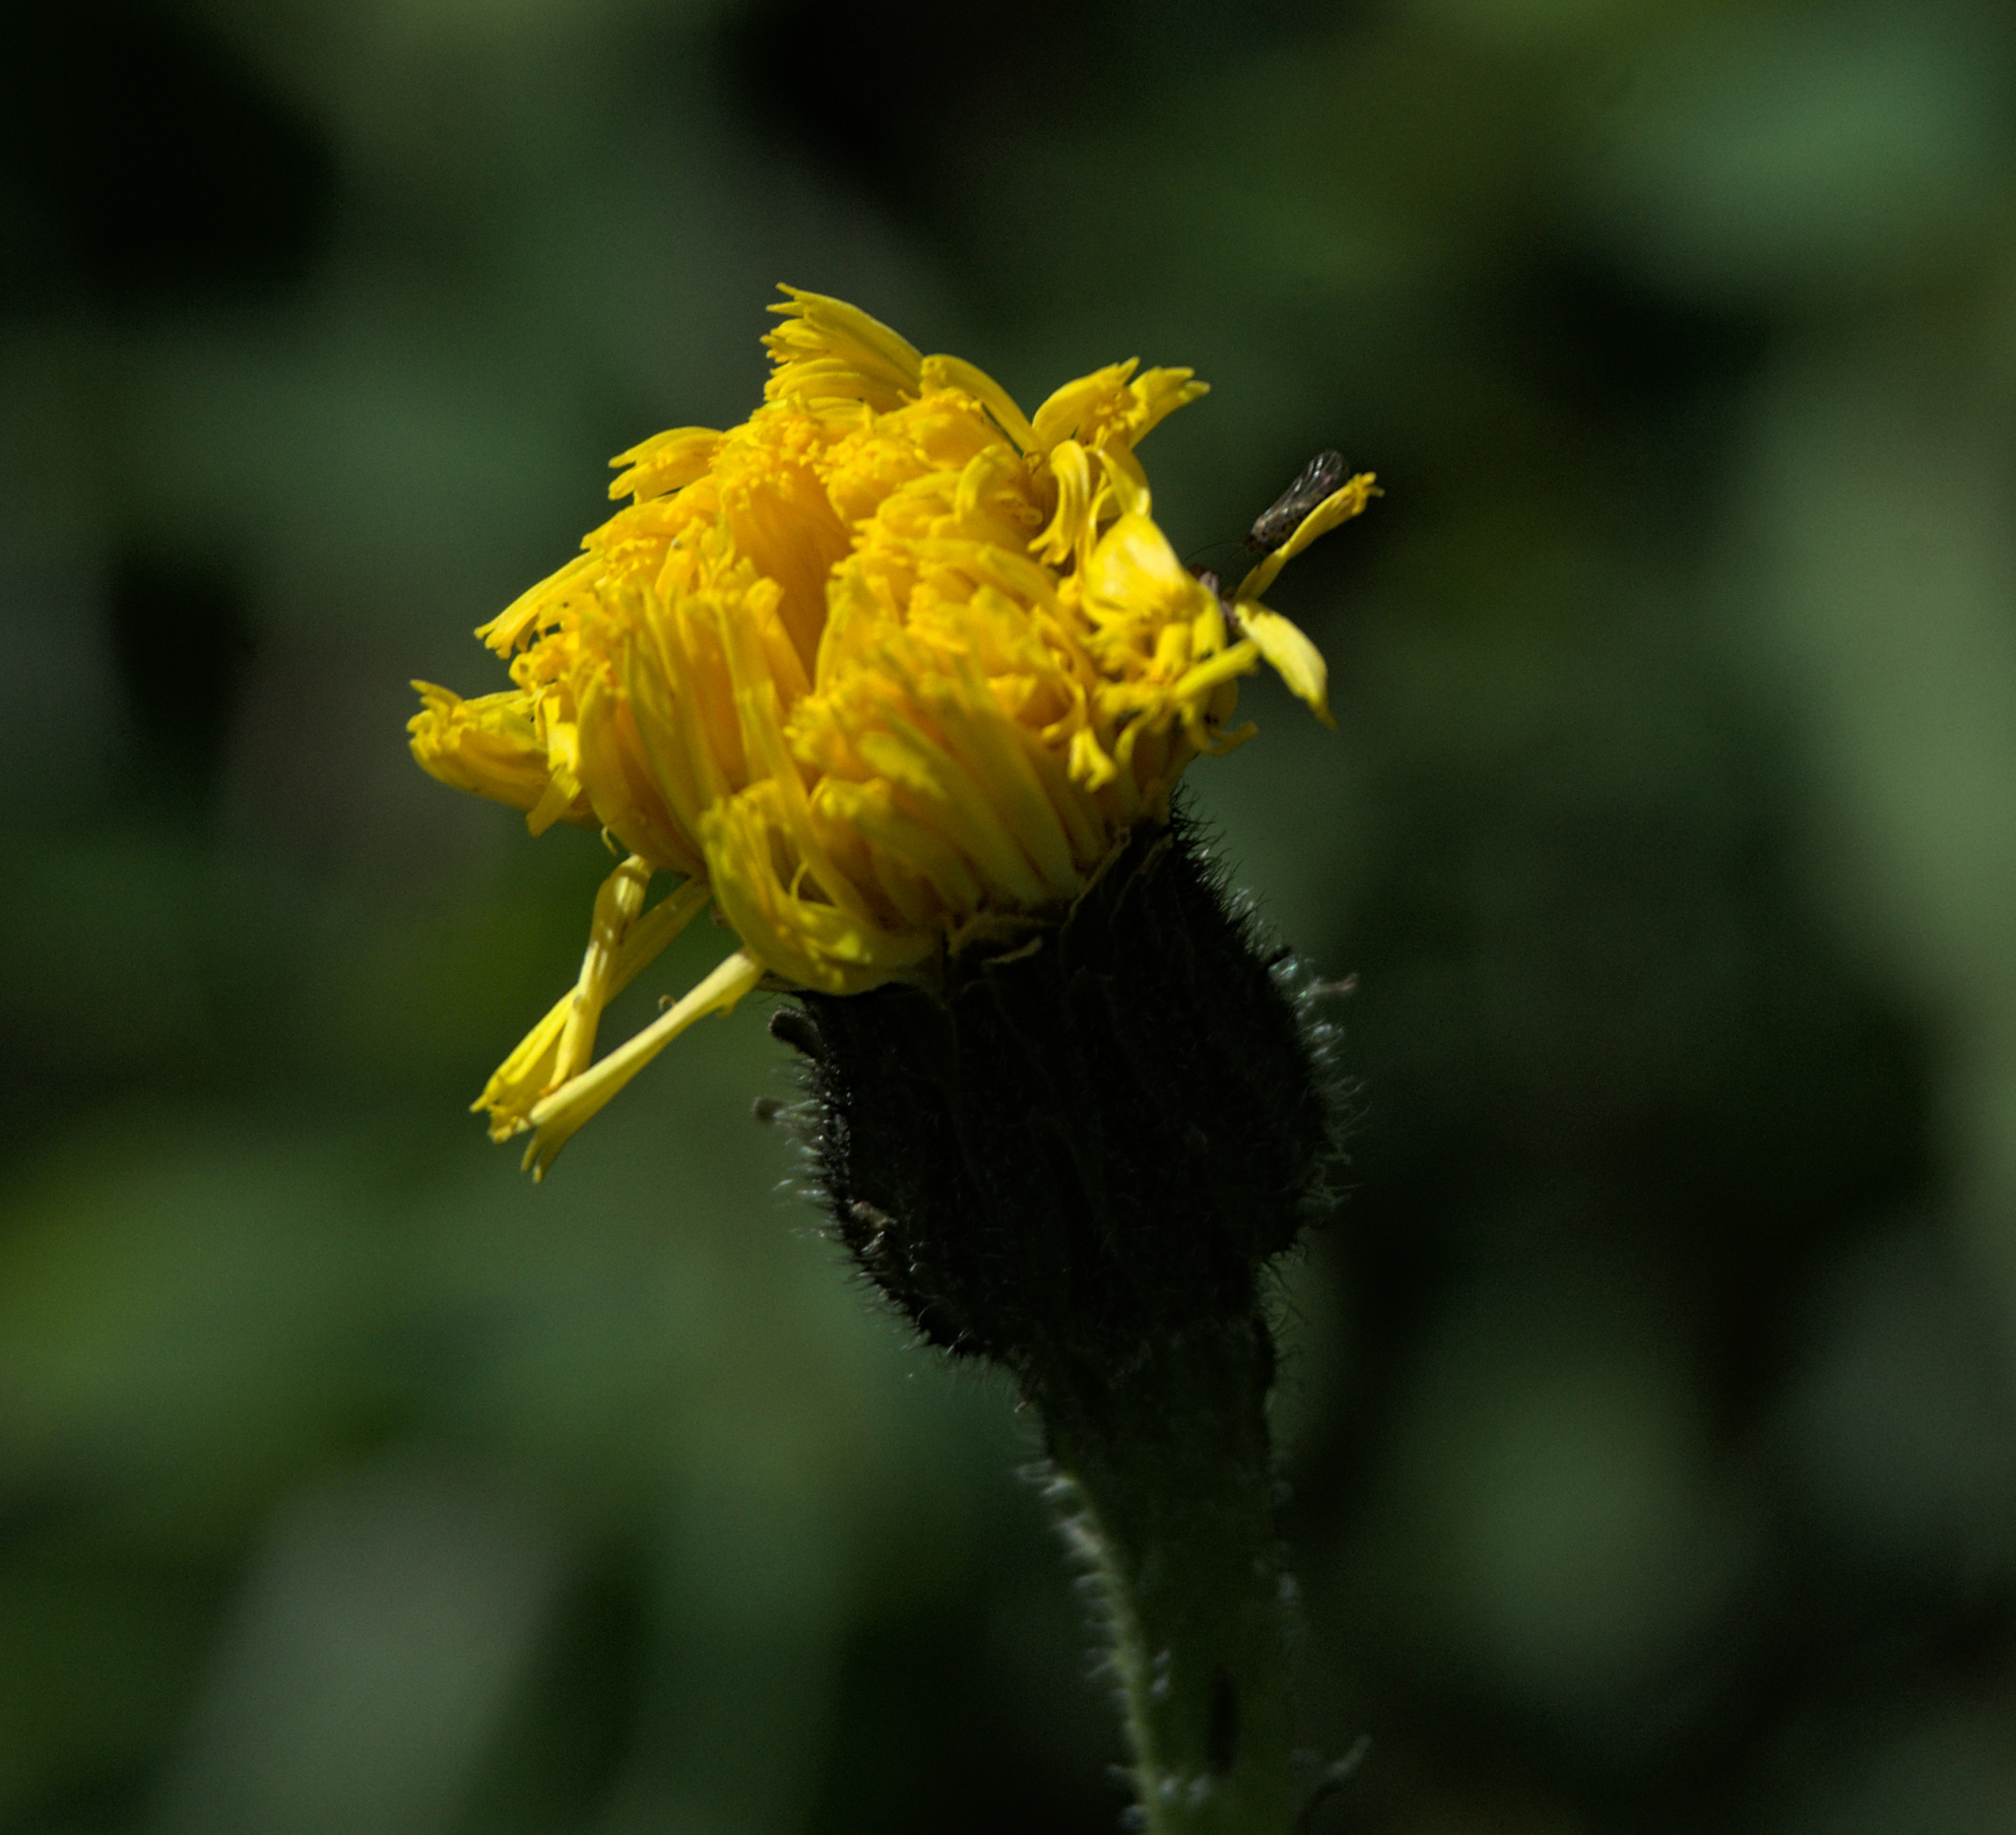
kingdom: Plantae
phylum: Tracheophyta
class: Magnoliopsida
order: Asterales
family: Asteraceae
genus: Trommsdorffia
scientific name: Trommsdorffia maculata
